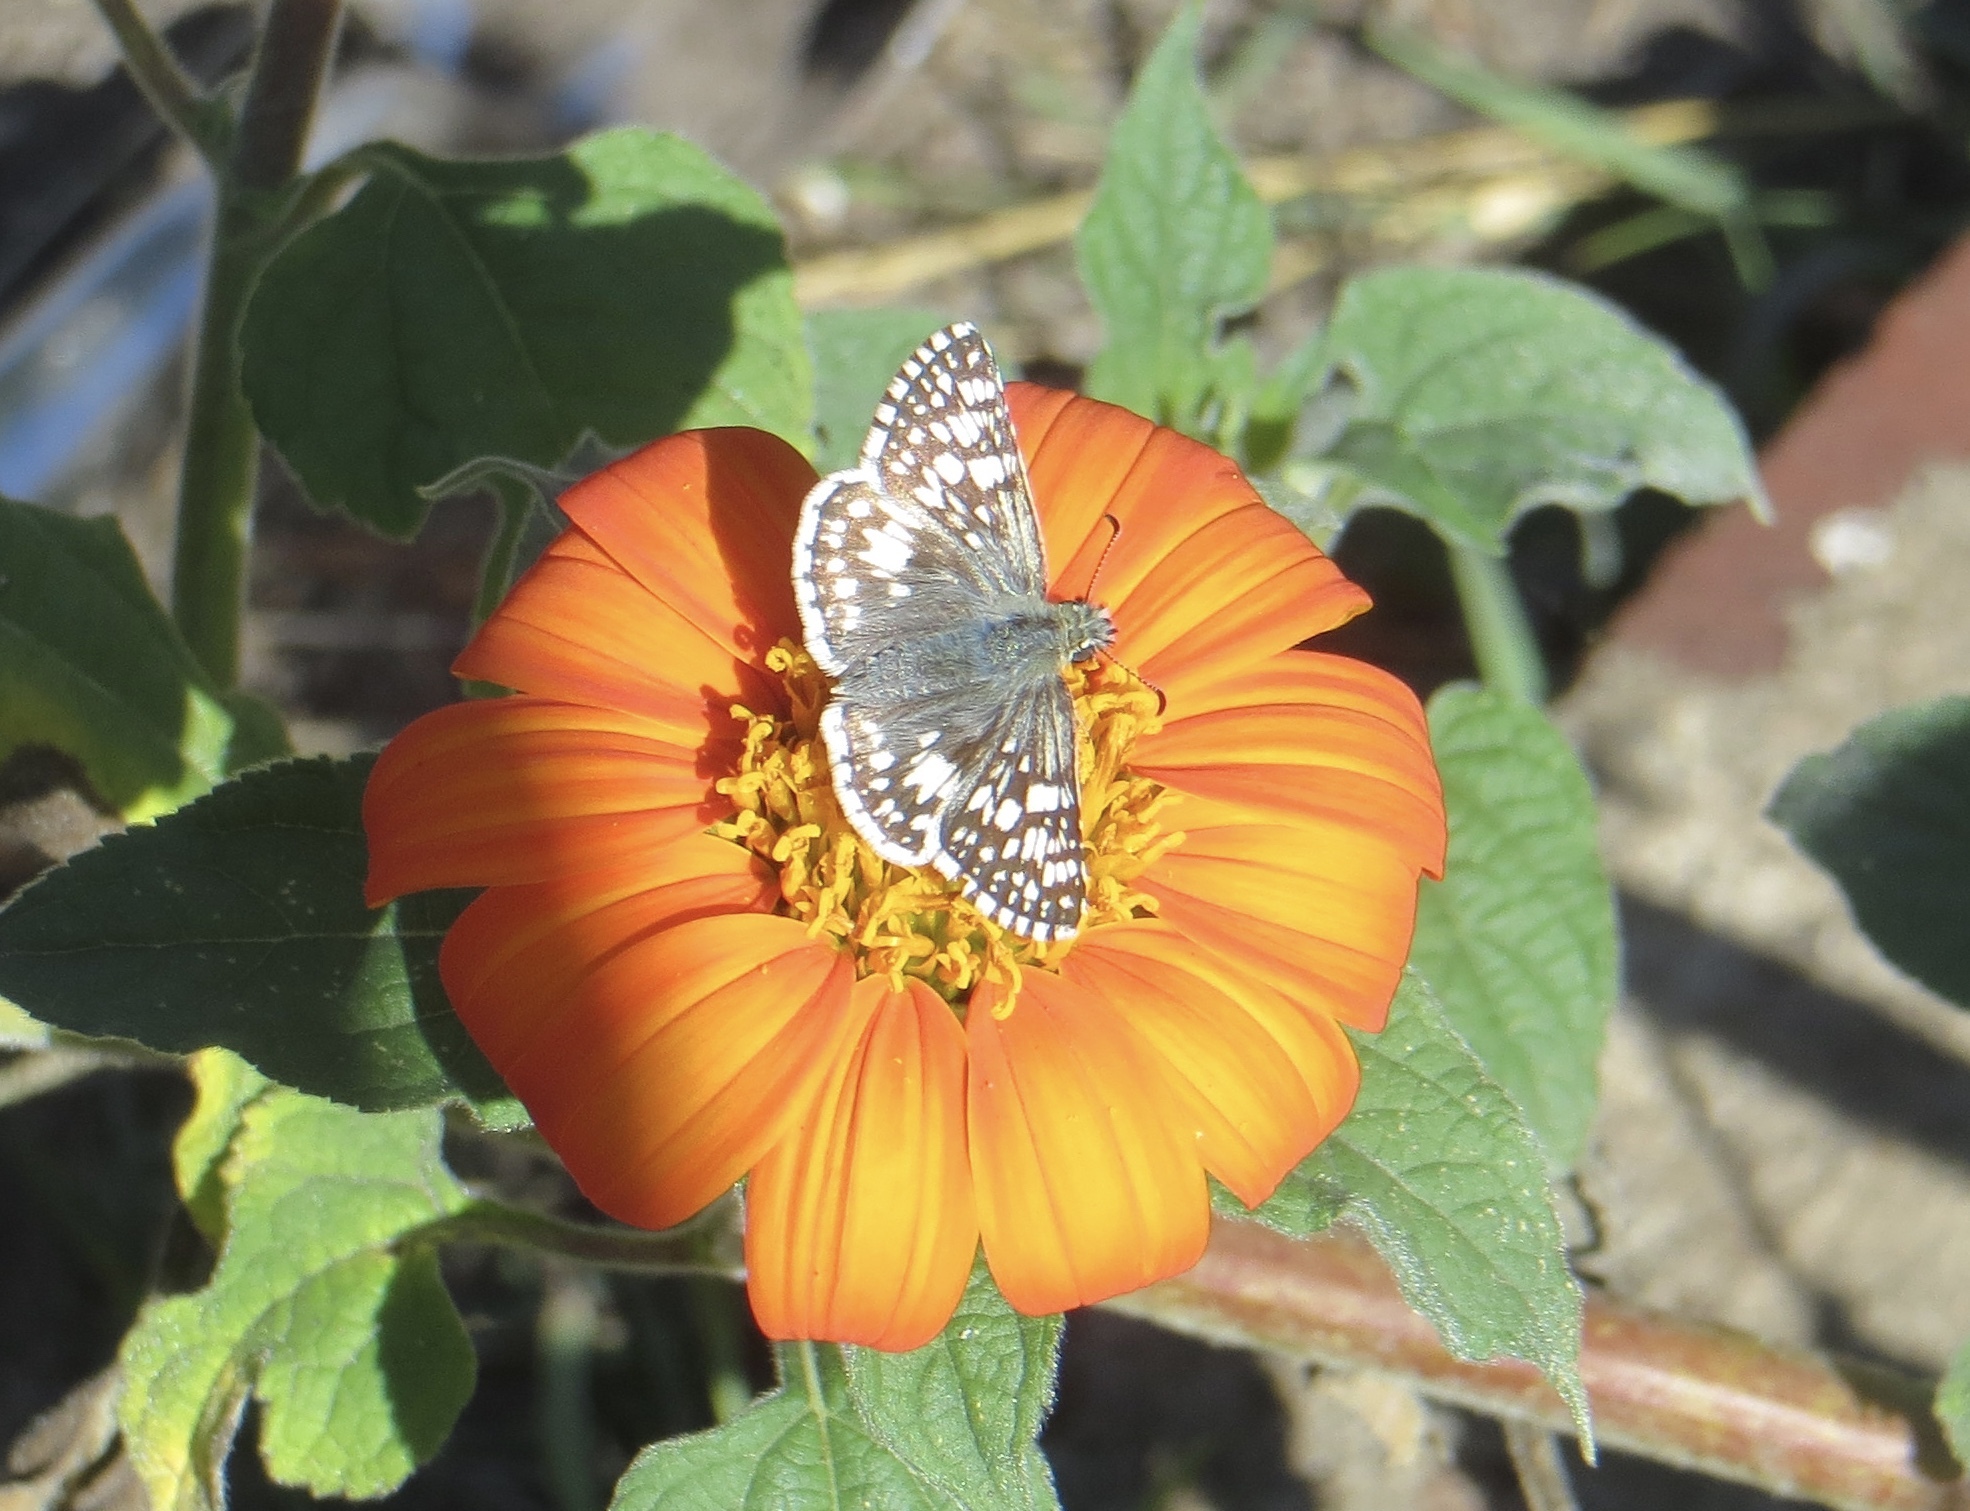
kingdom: Animalia
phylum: Arthropoda
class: Insecta
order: Lepidoptera
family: Hesperiidae
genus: Burnsius
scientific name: Burnsius communis
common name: Common checkered-skipper
